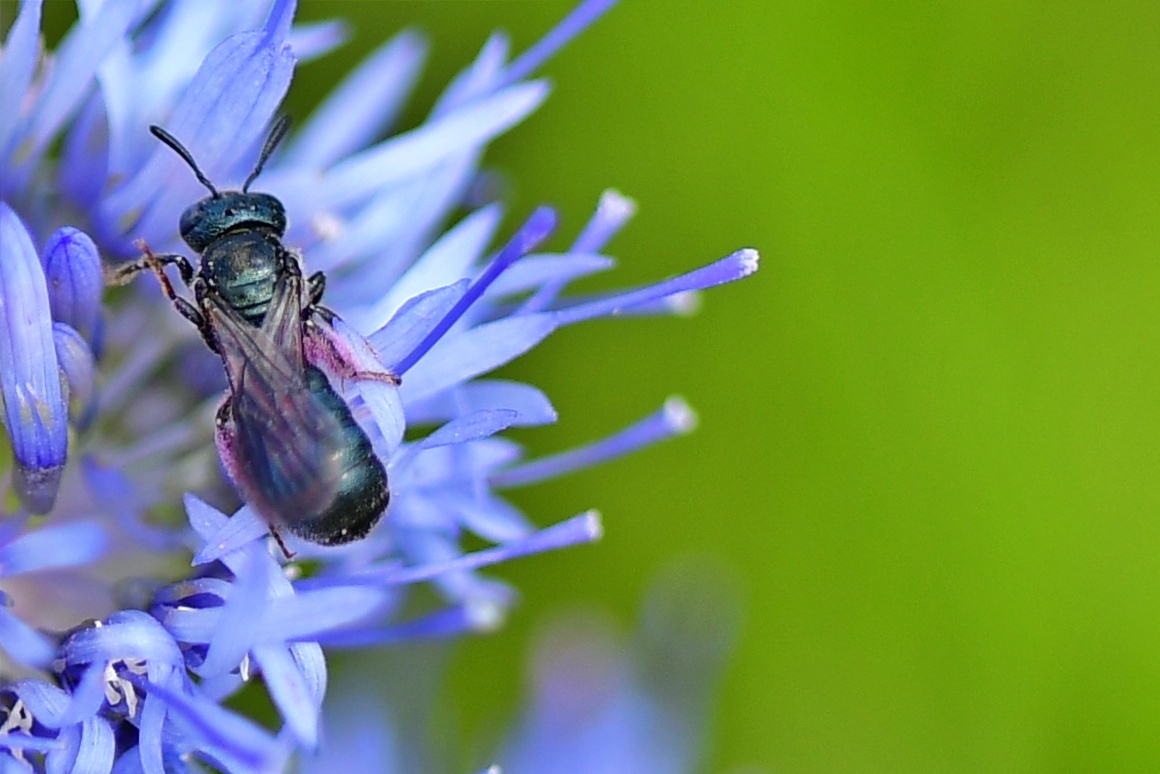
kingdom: Animalia
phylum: Arthropoda
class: Insecta
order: Hymenoptera
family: Apidae
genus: Ceratina
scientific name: Ceratina cyanea
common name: Little blue carpenter bee
